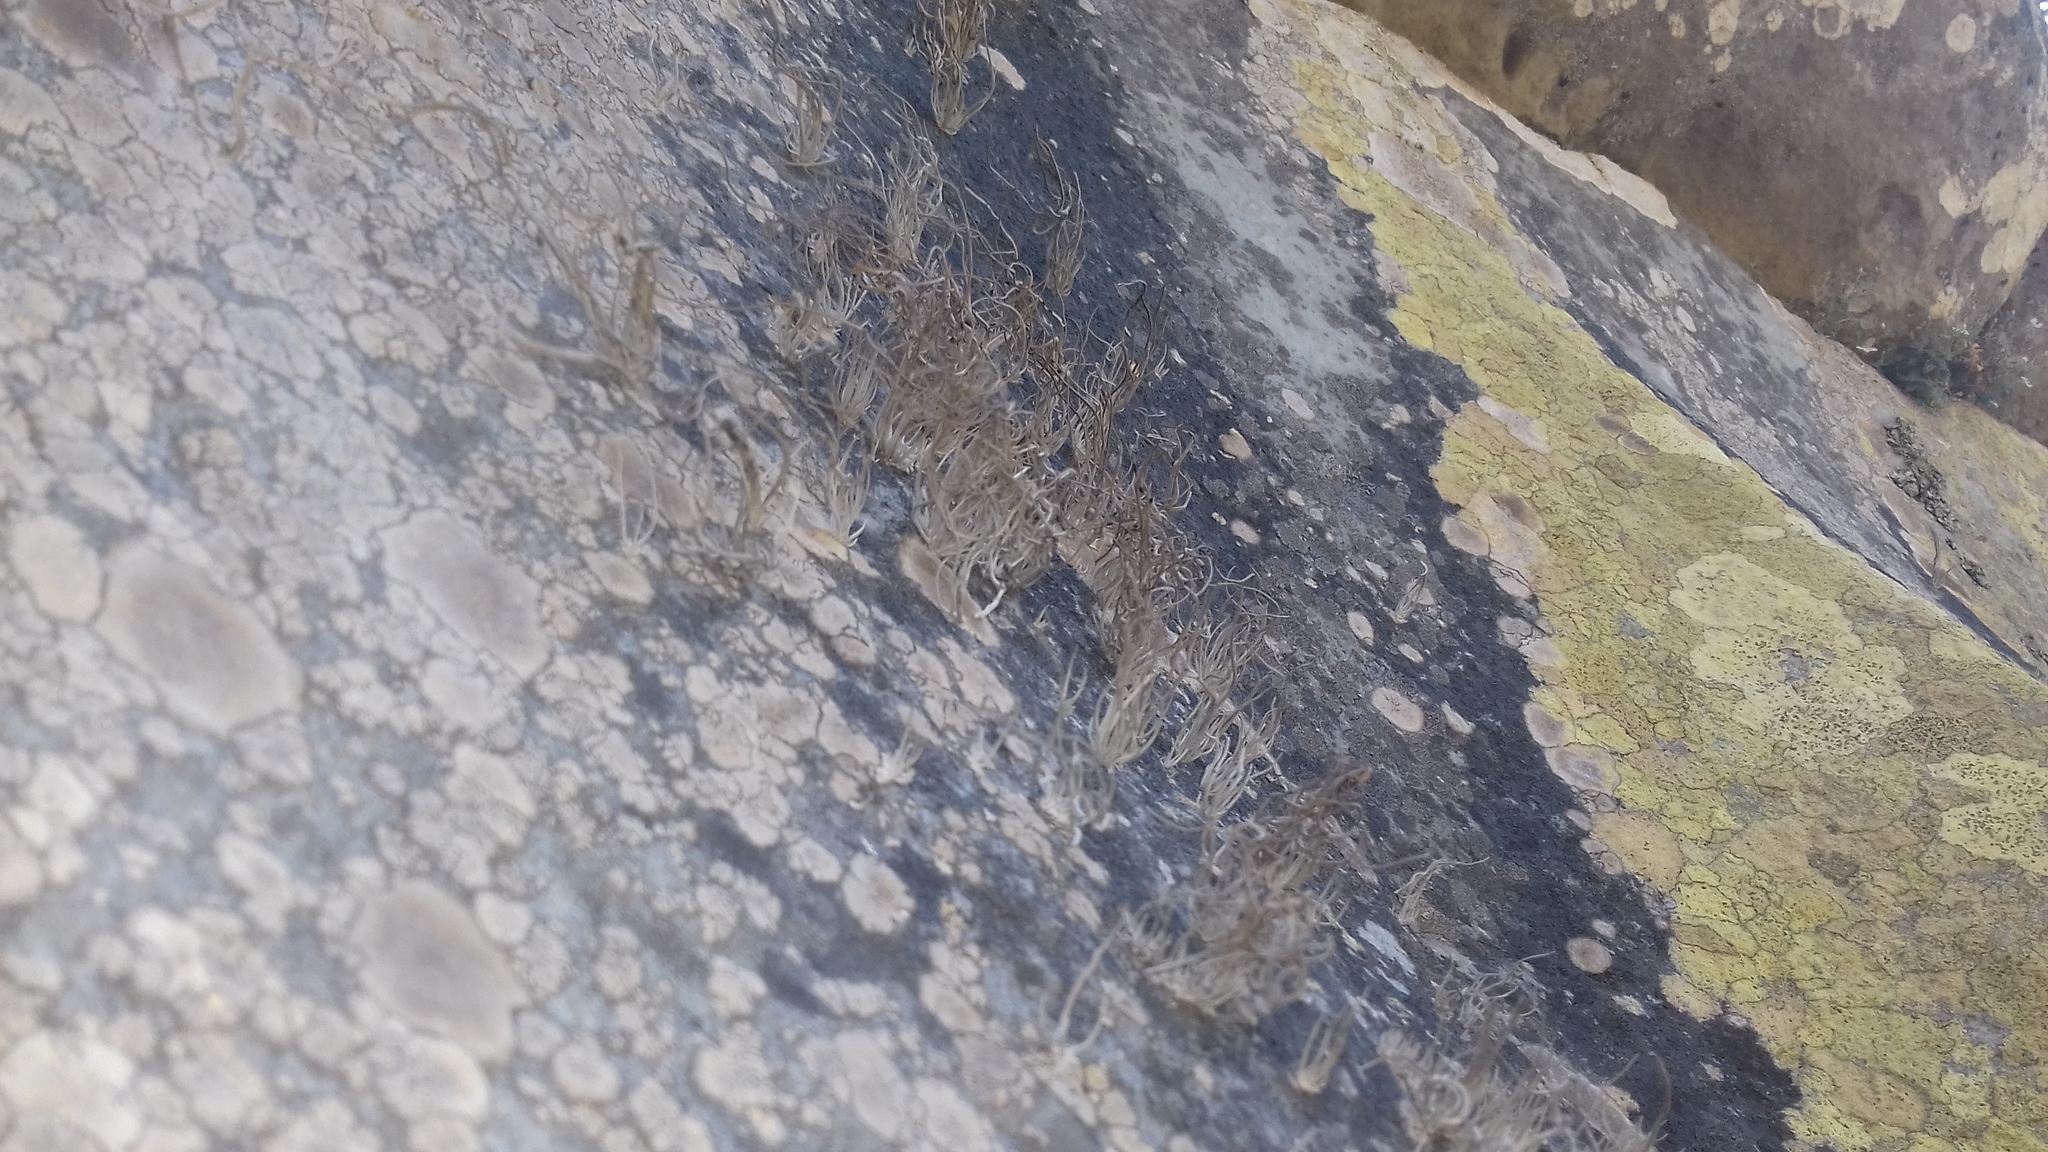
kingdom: Fungi
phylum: Ascomycota
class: Arthoniomycetes
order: Arthoniales
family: Roccellaceae
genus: Roccellina
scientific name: Roccellina hypomecha
